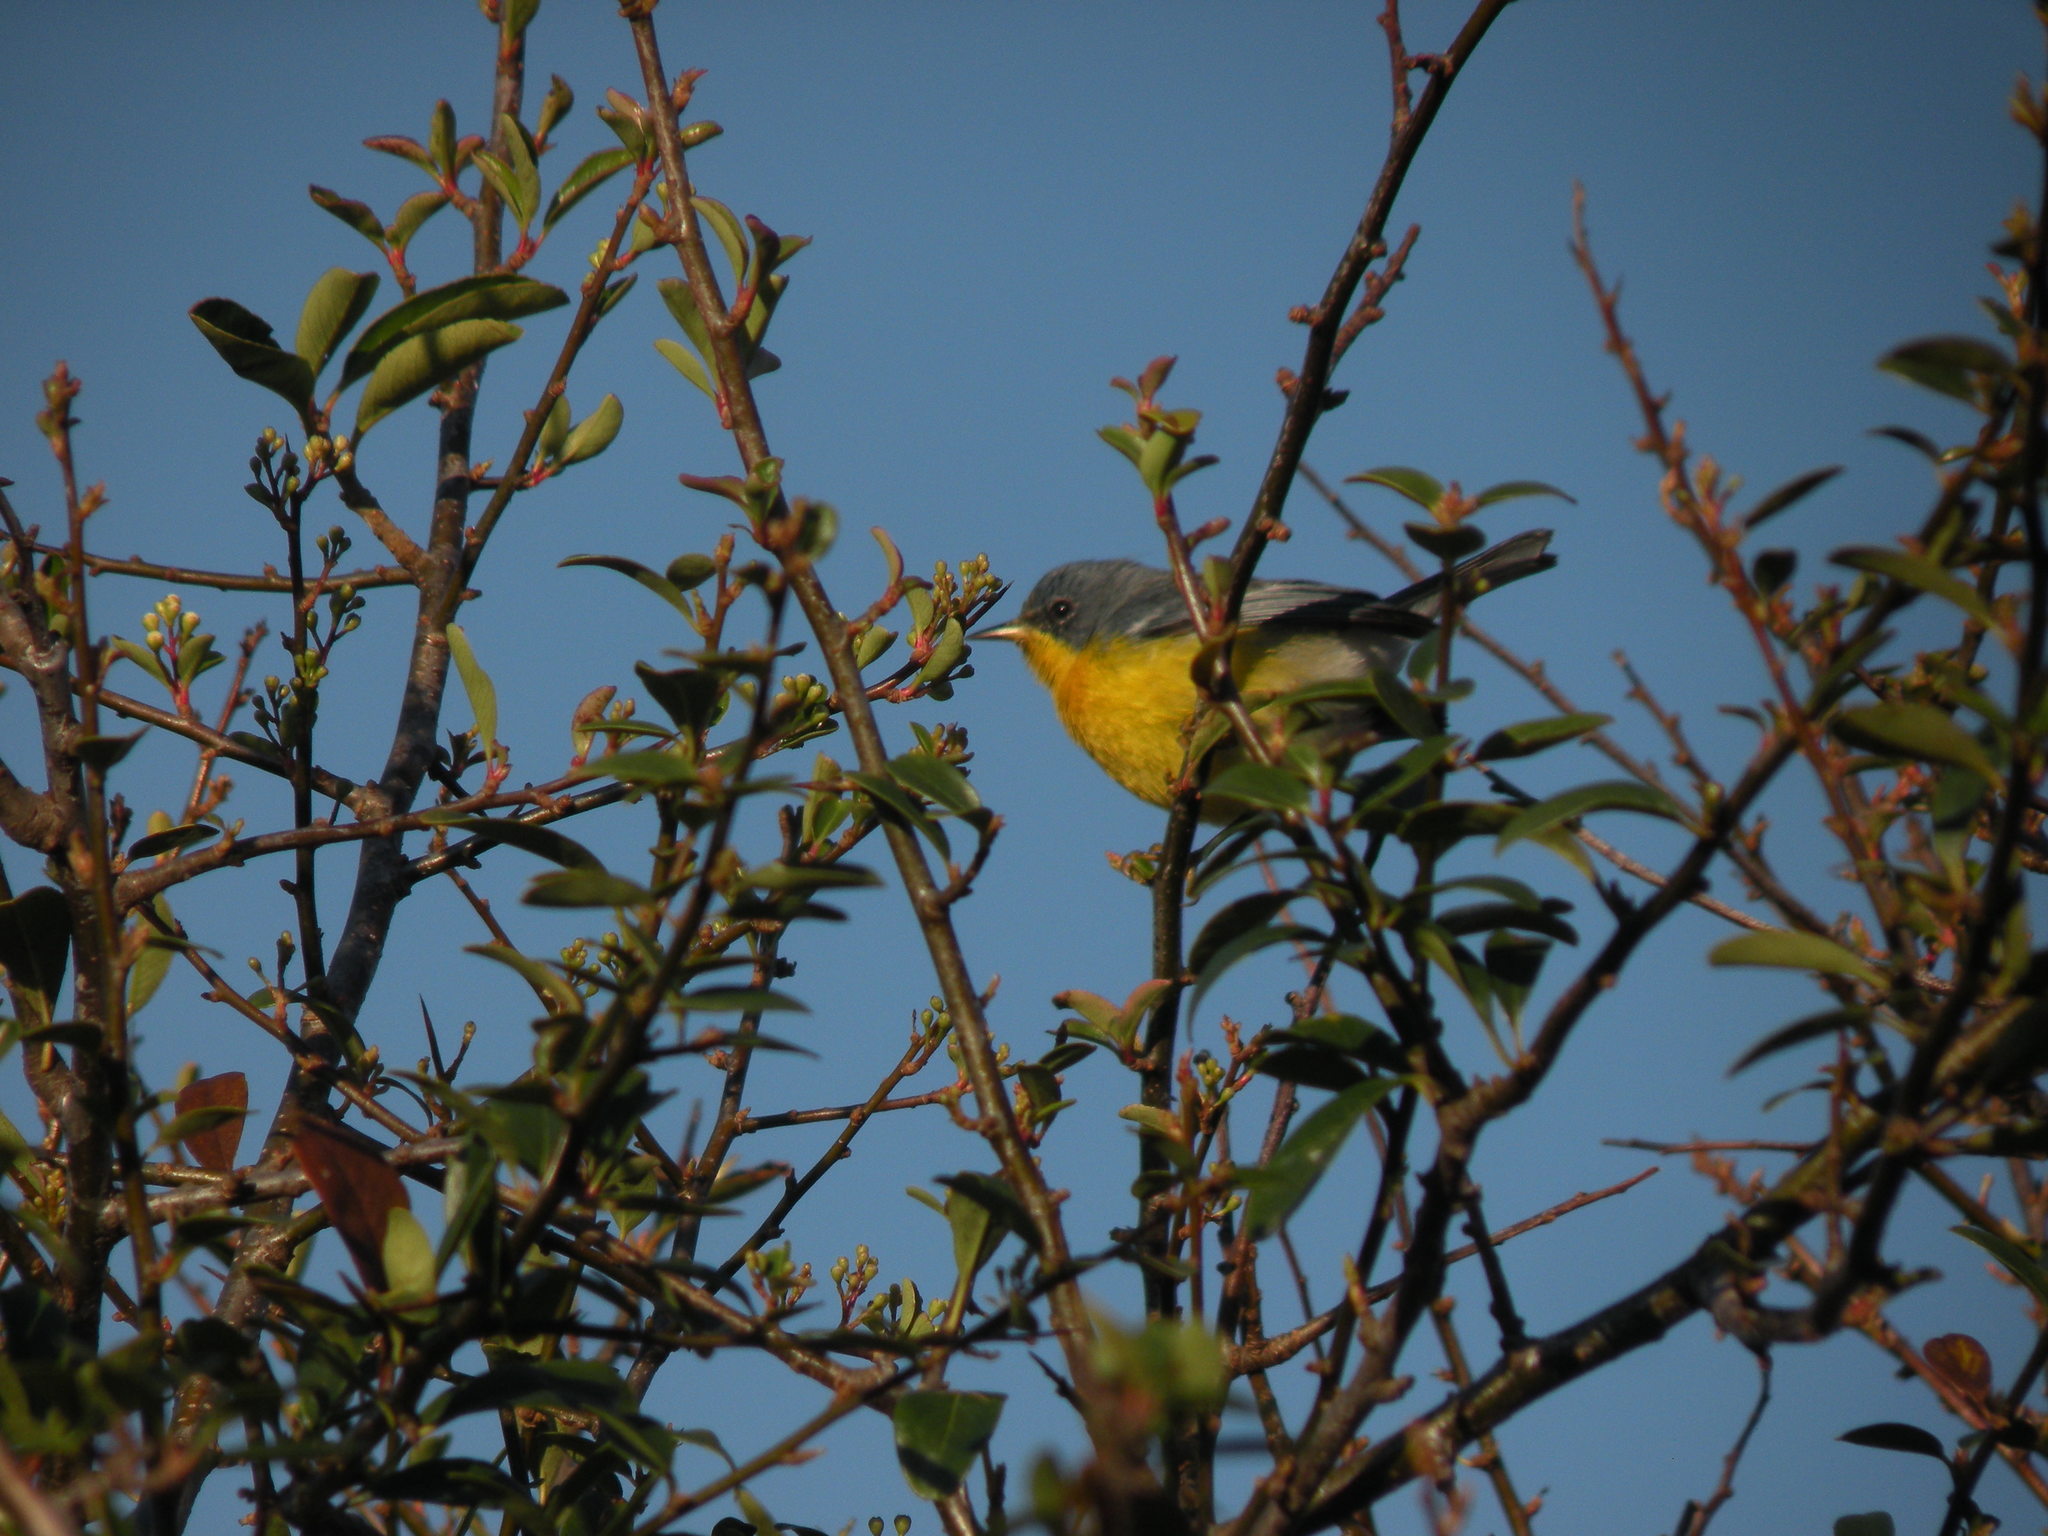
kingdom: Animalia
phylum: Chordata
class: Aves
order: Passeriformes
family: Parulidae
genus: Setophaga
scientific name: Setophaga pitiayumi
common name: Tropical parula
